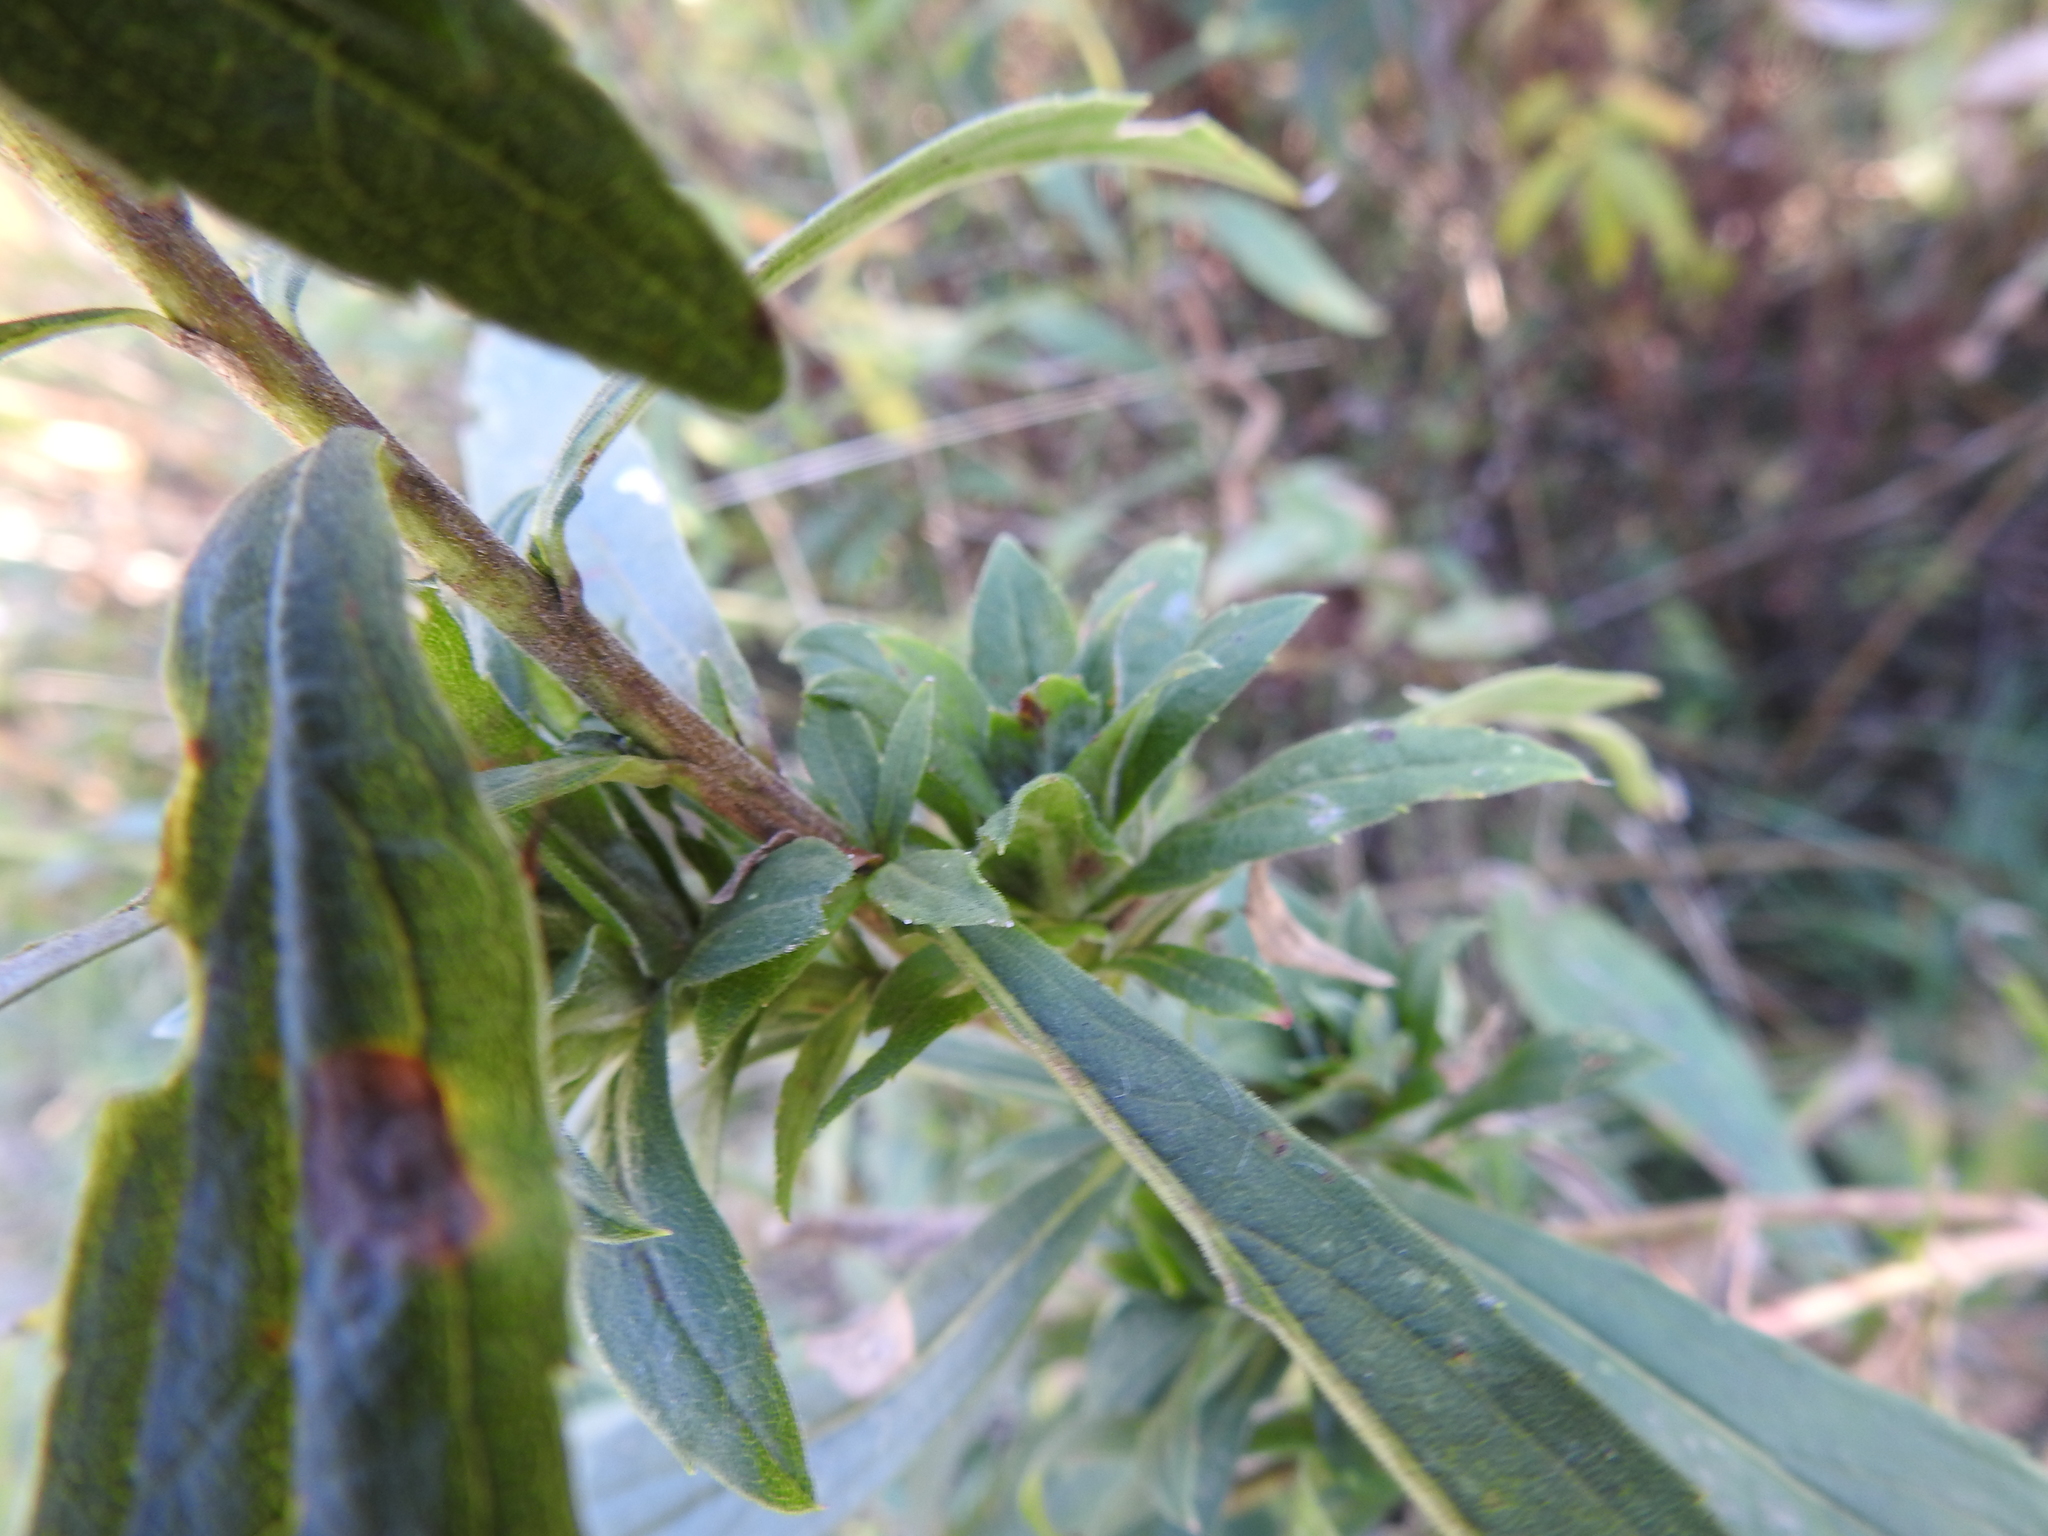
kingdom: Animalia
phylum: Arthropoda
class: Insecta
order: Diptera
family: Tephritidae
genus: Procecidochares
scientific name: Procecidochares atra
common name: Goldenrod brussels sprout gall fly
